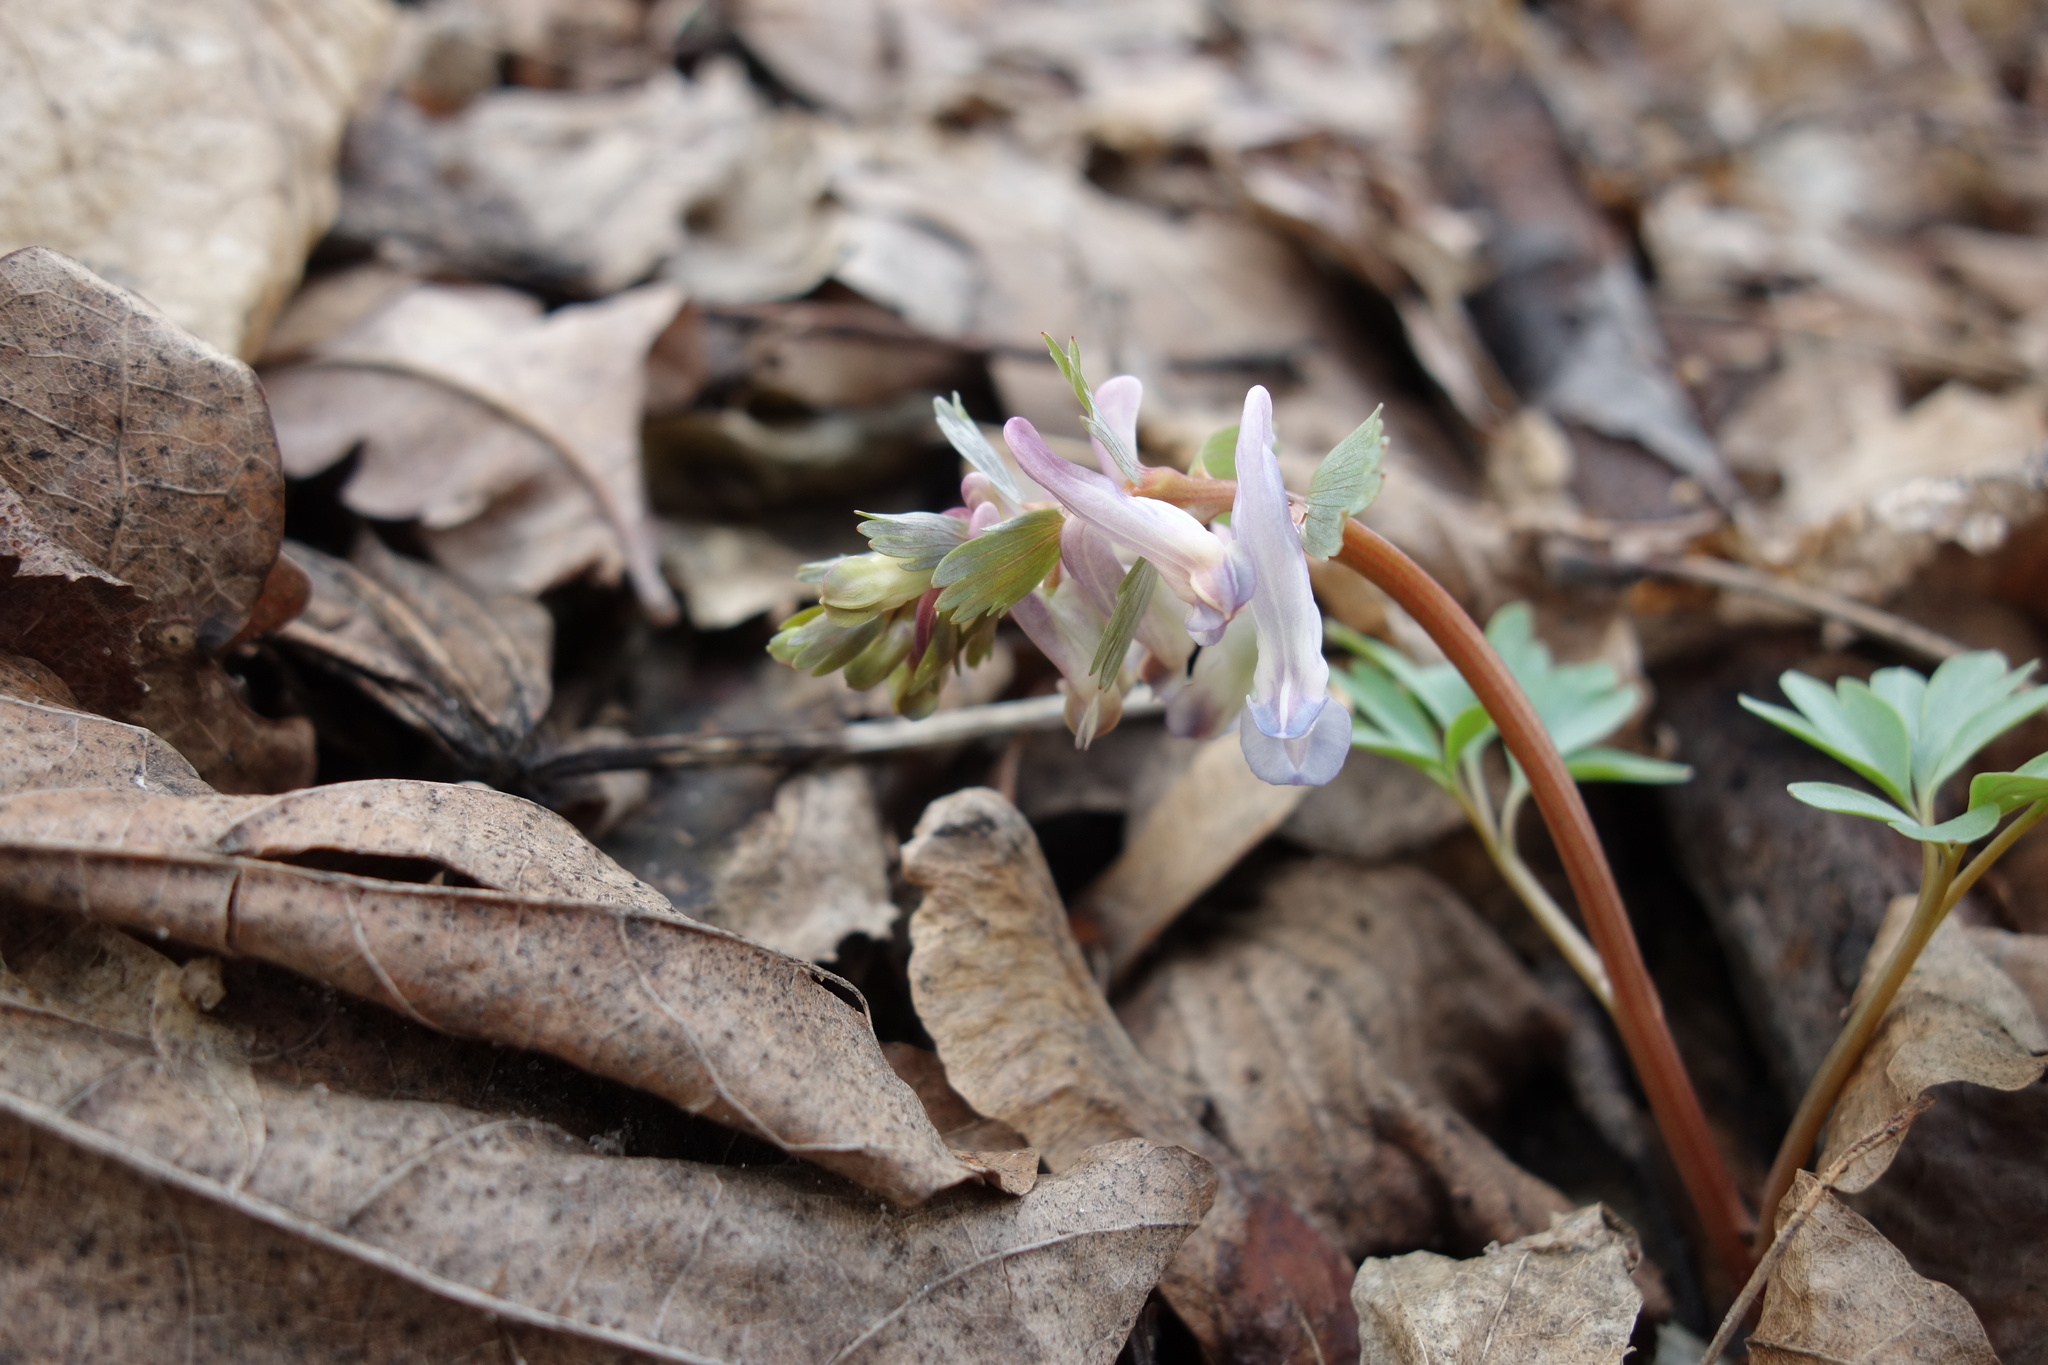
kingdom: Plantae
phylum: Tracheophyta
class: Magnoliopsida
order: Ranunculales
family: Papaveraceae
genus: Corydalis
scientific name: Corydalis solida
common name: Bird-in-a-bush
